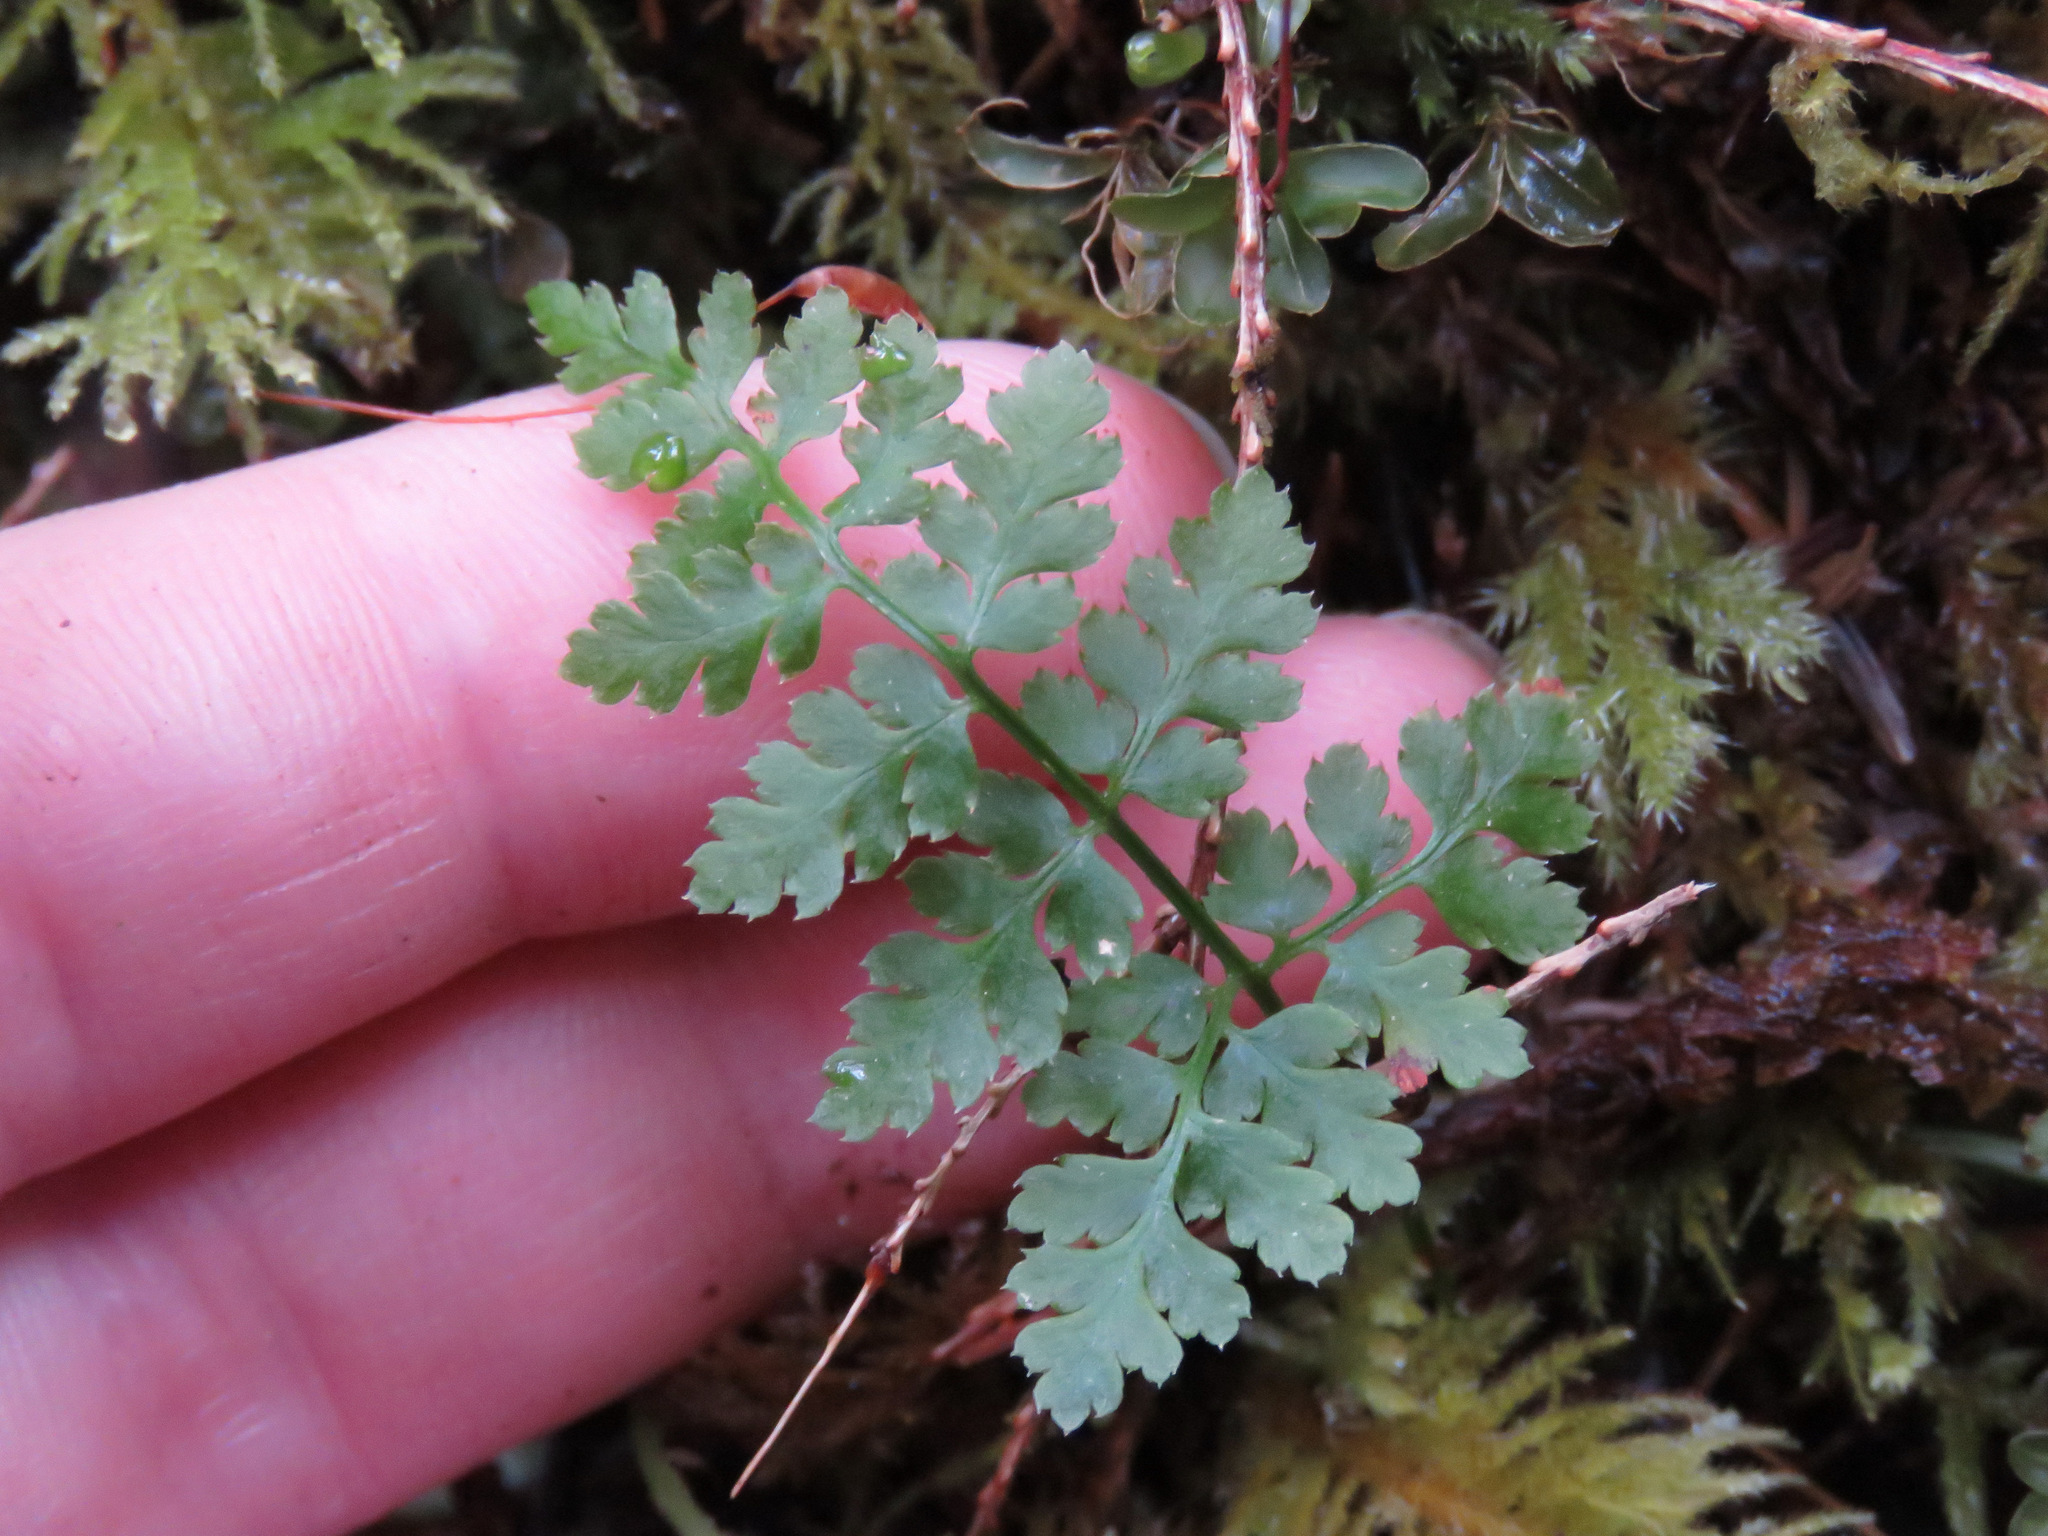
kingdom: Plantae
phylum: Tracheophyta
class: Polypodiopsida
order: Polypodiales
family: Dryopteridaceae
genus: Dryopteris
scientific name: Dryopteris expansa
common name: Northern buckler fern
